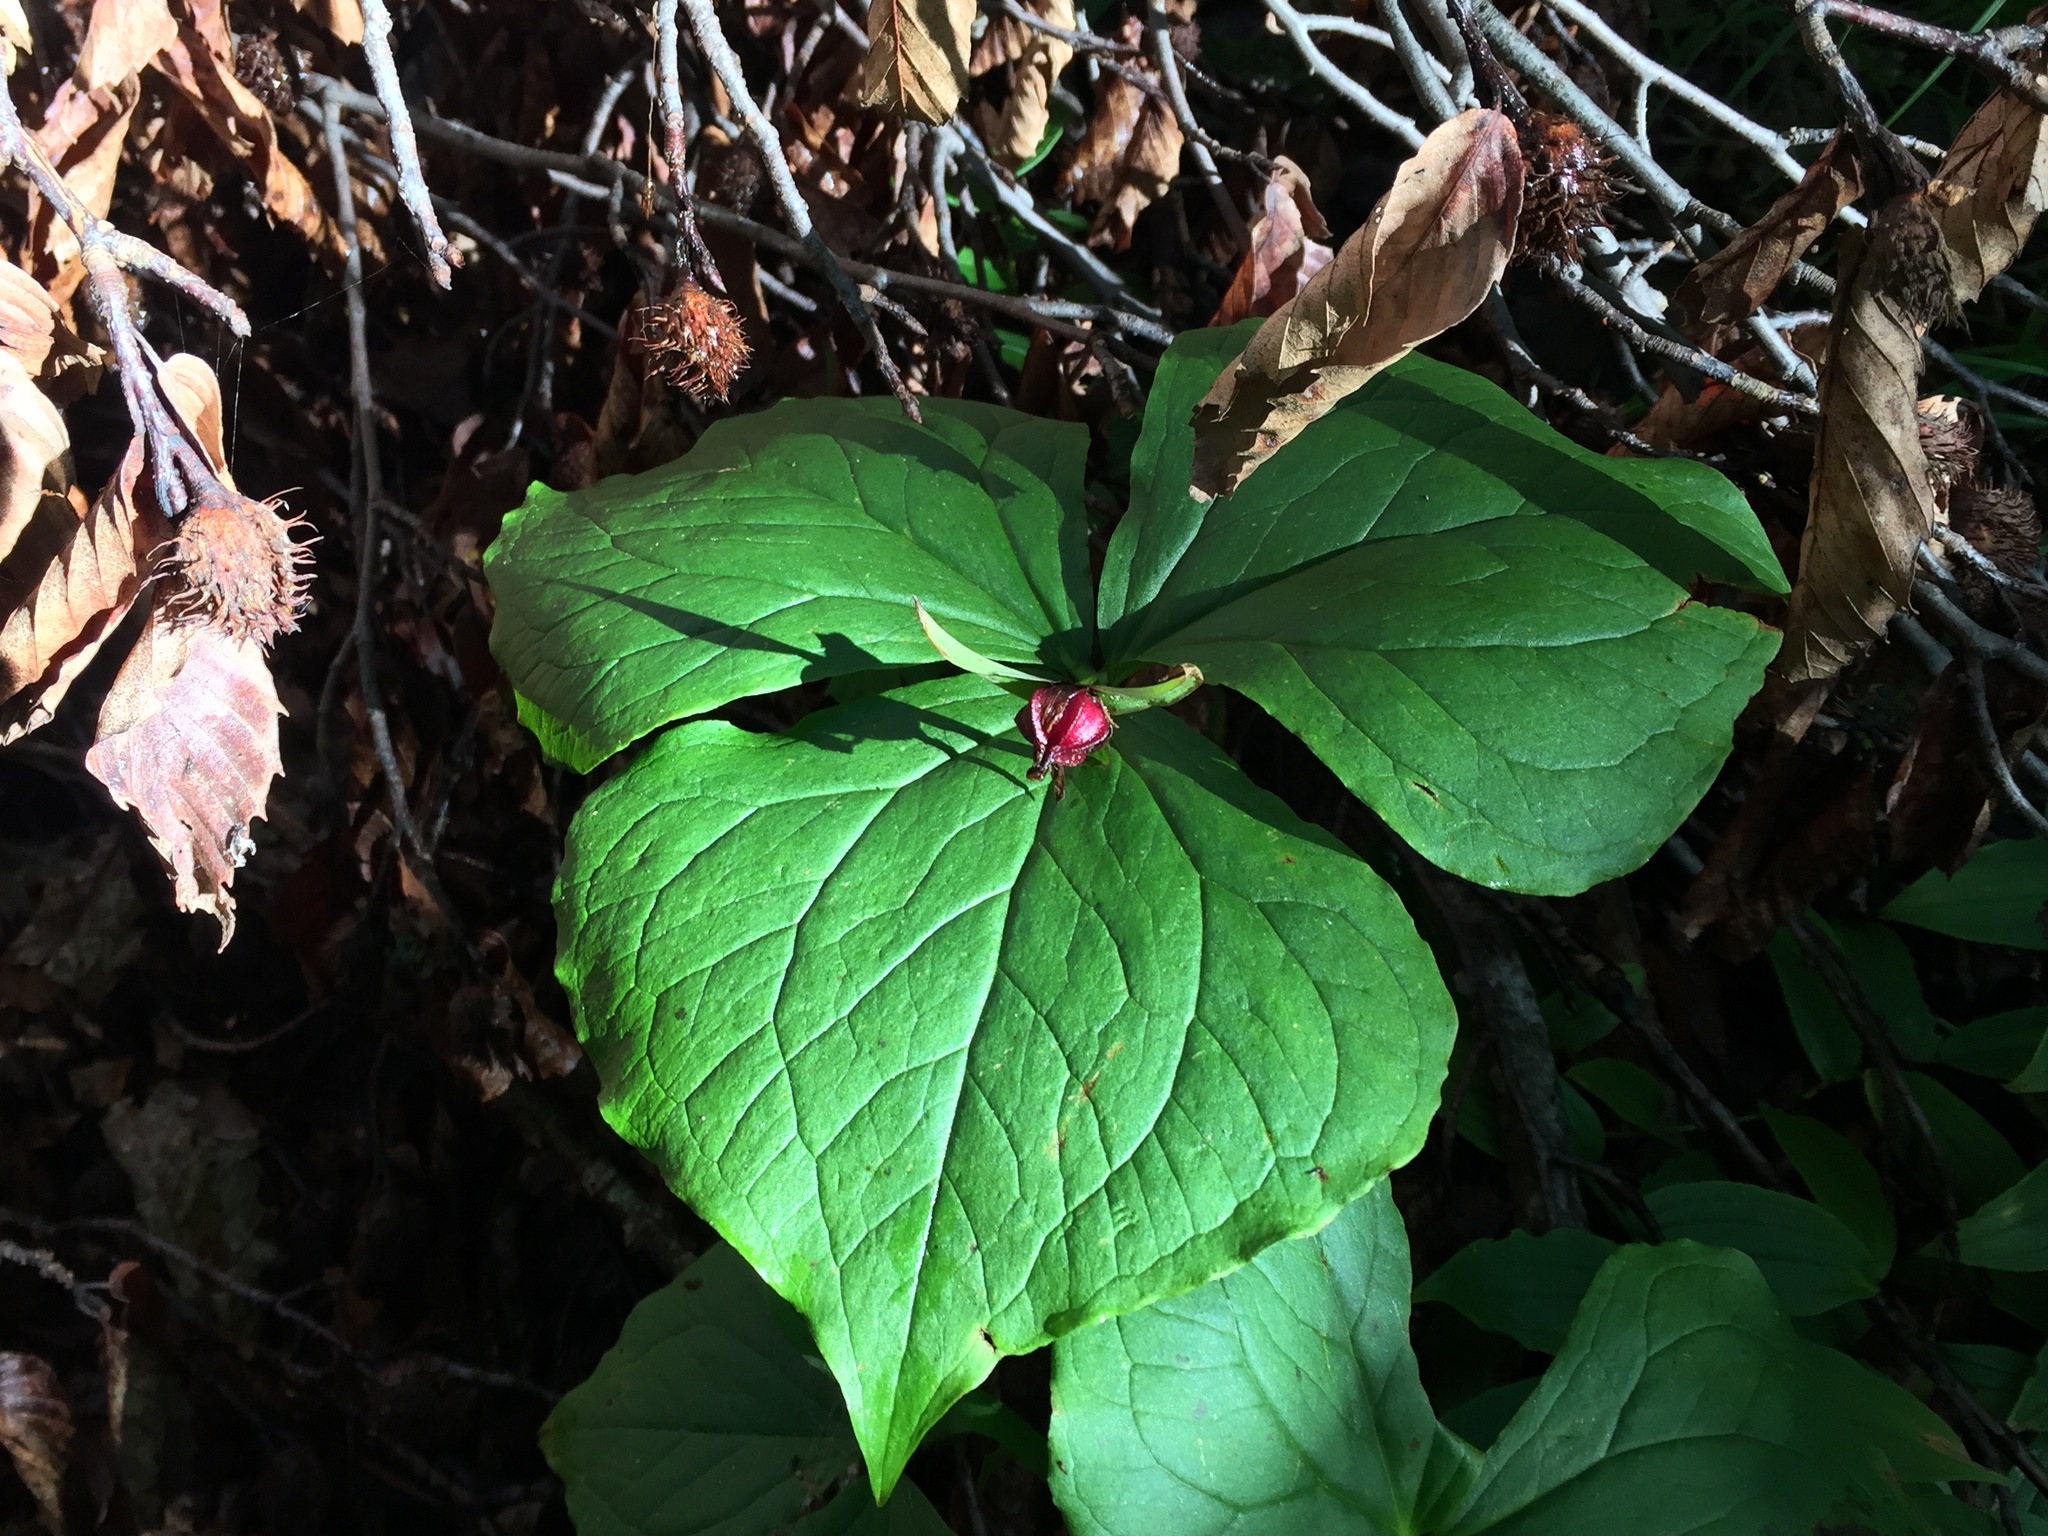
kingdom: Plantae
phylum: Tracheophyta
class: Liliopsida
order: Liliales
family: Melanthiaceae
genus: Trillium
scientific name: Trillium erectum
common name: Purple trillium
